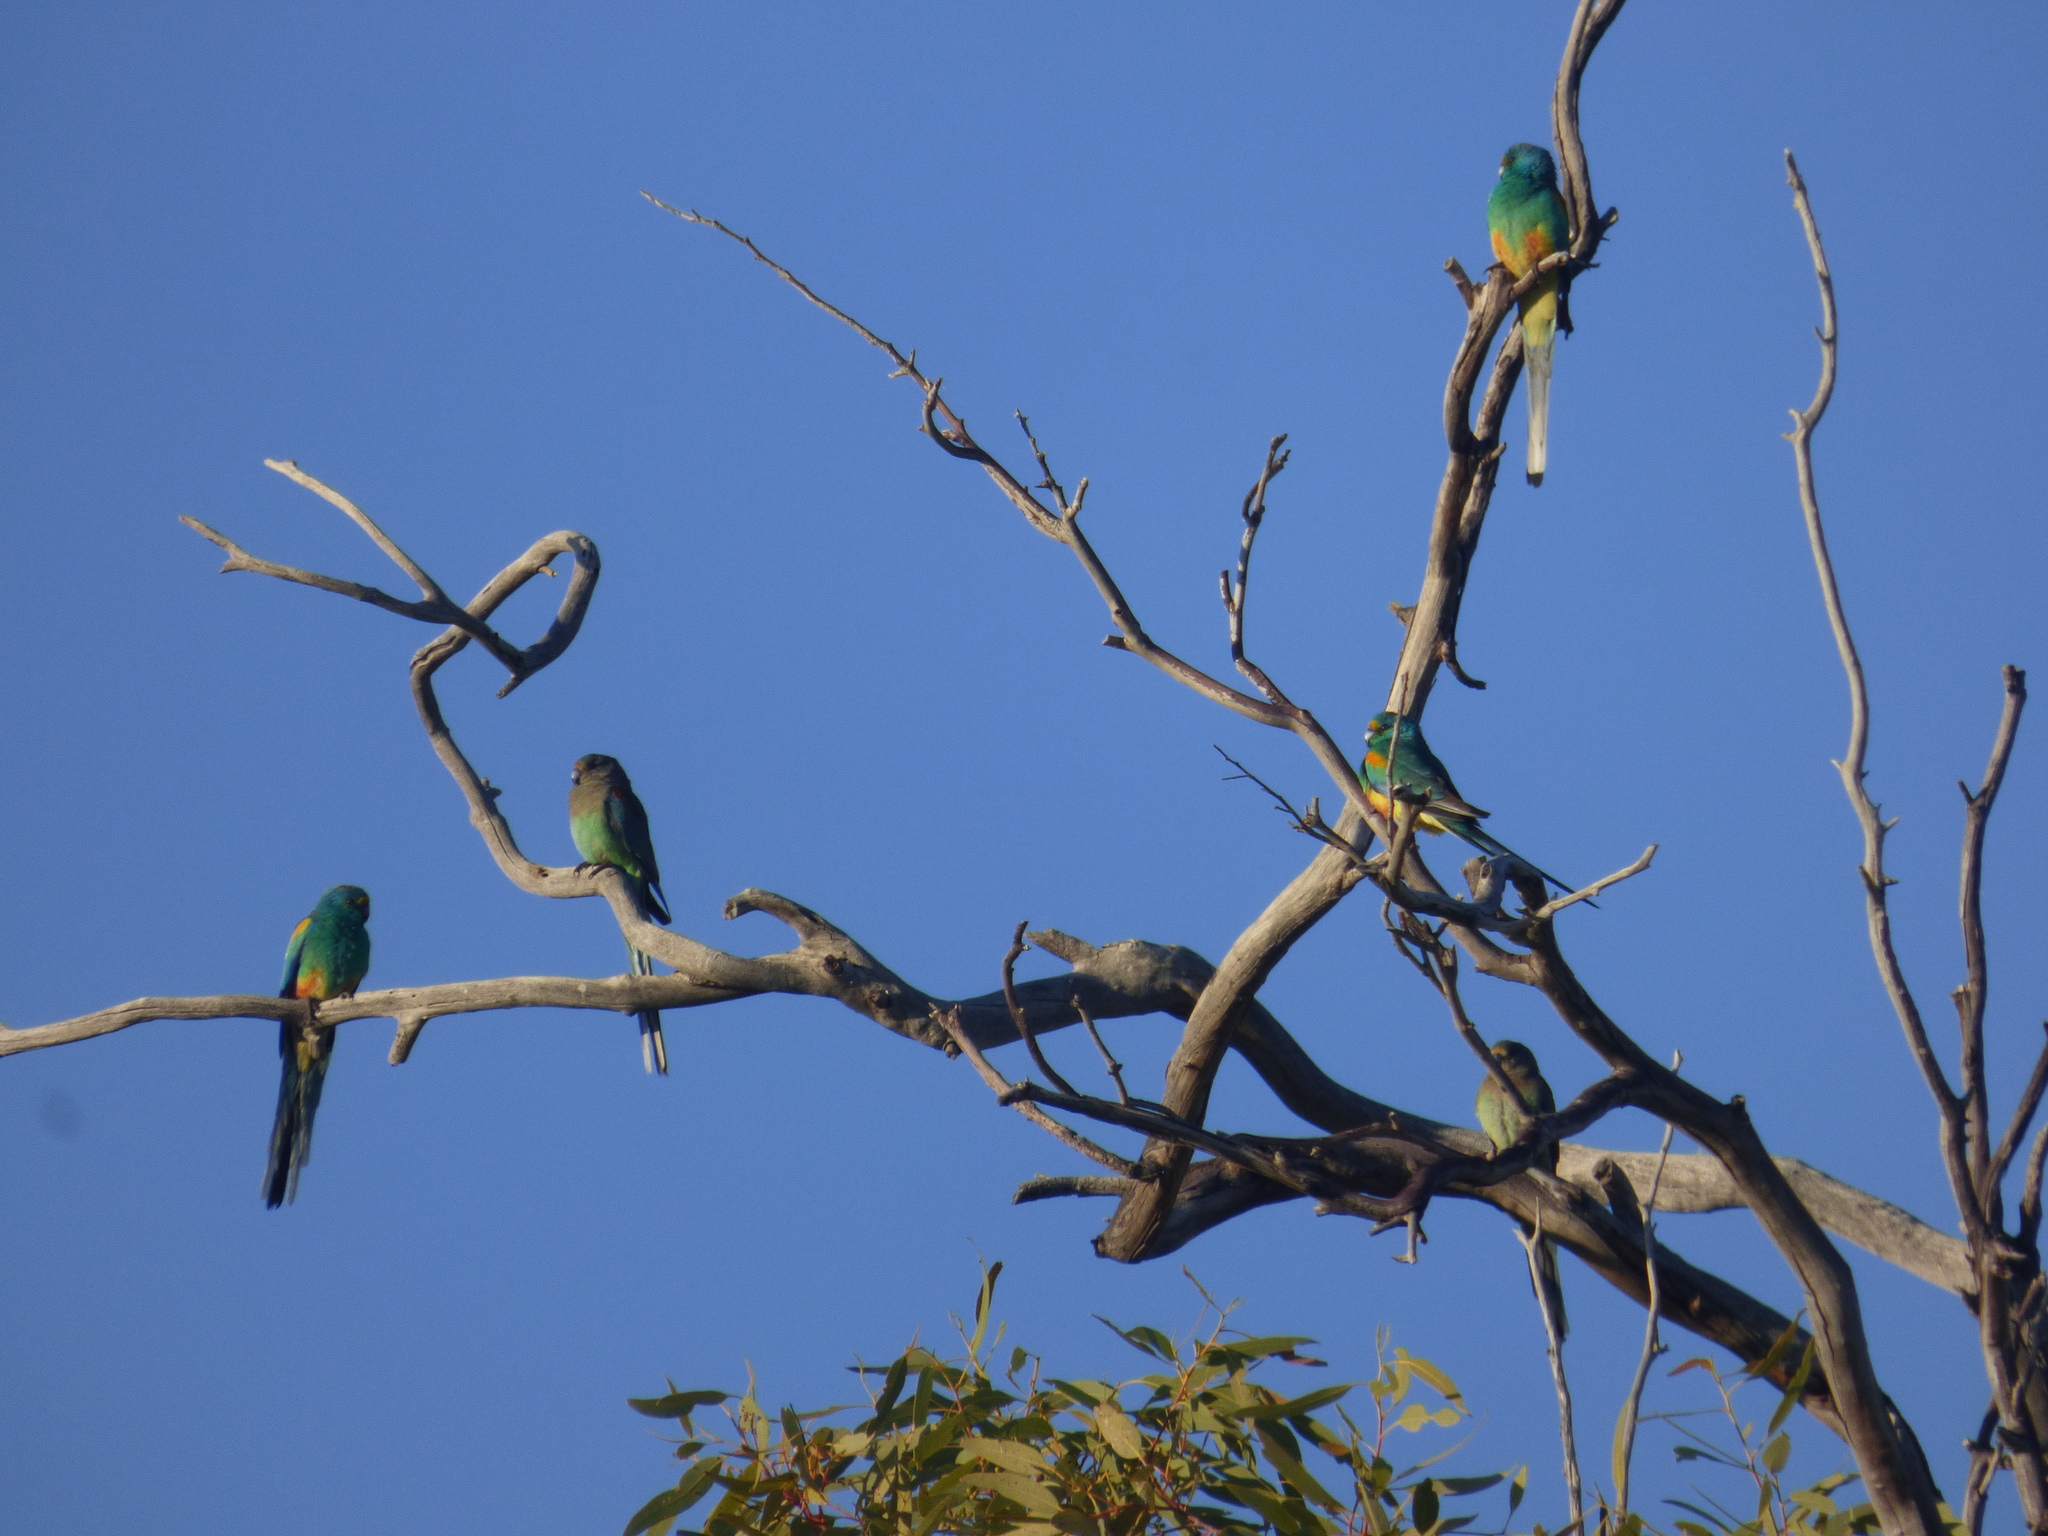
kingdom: Animalia
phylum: Chordata
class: Aves
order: Psittaciformes
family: Psittaculidae
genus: Psephotellus
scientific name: Psephotellus varius
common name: Mulga parrot
